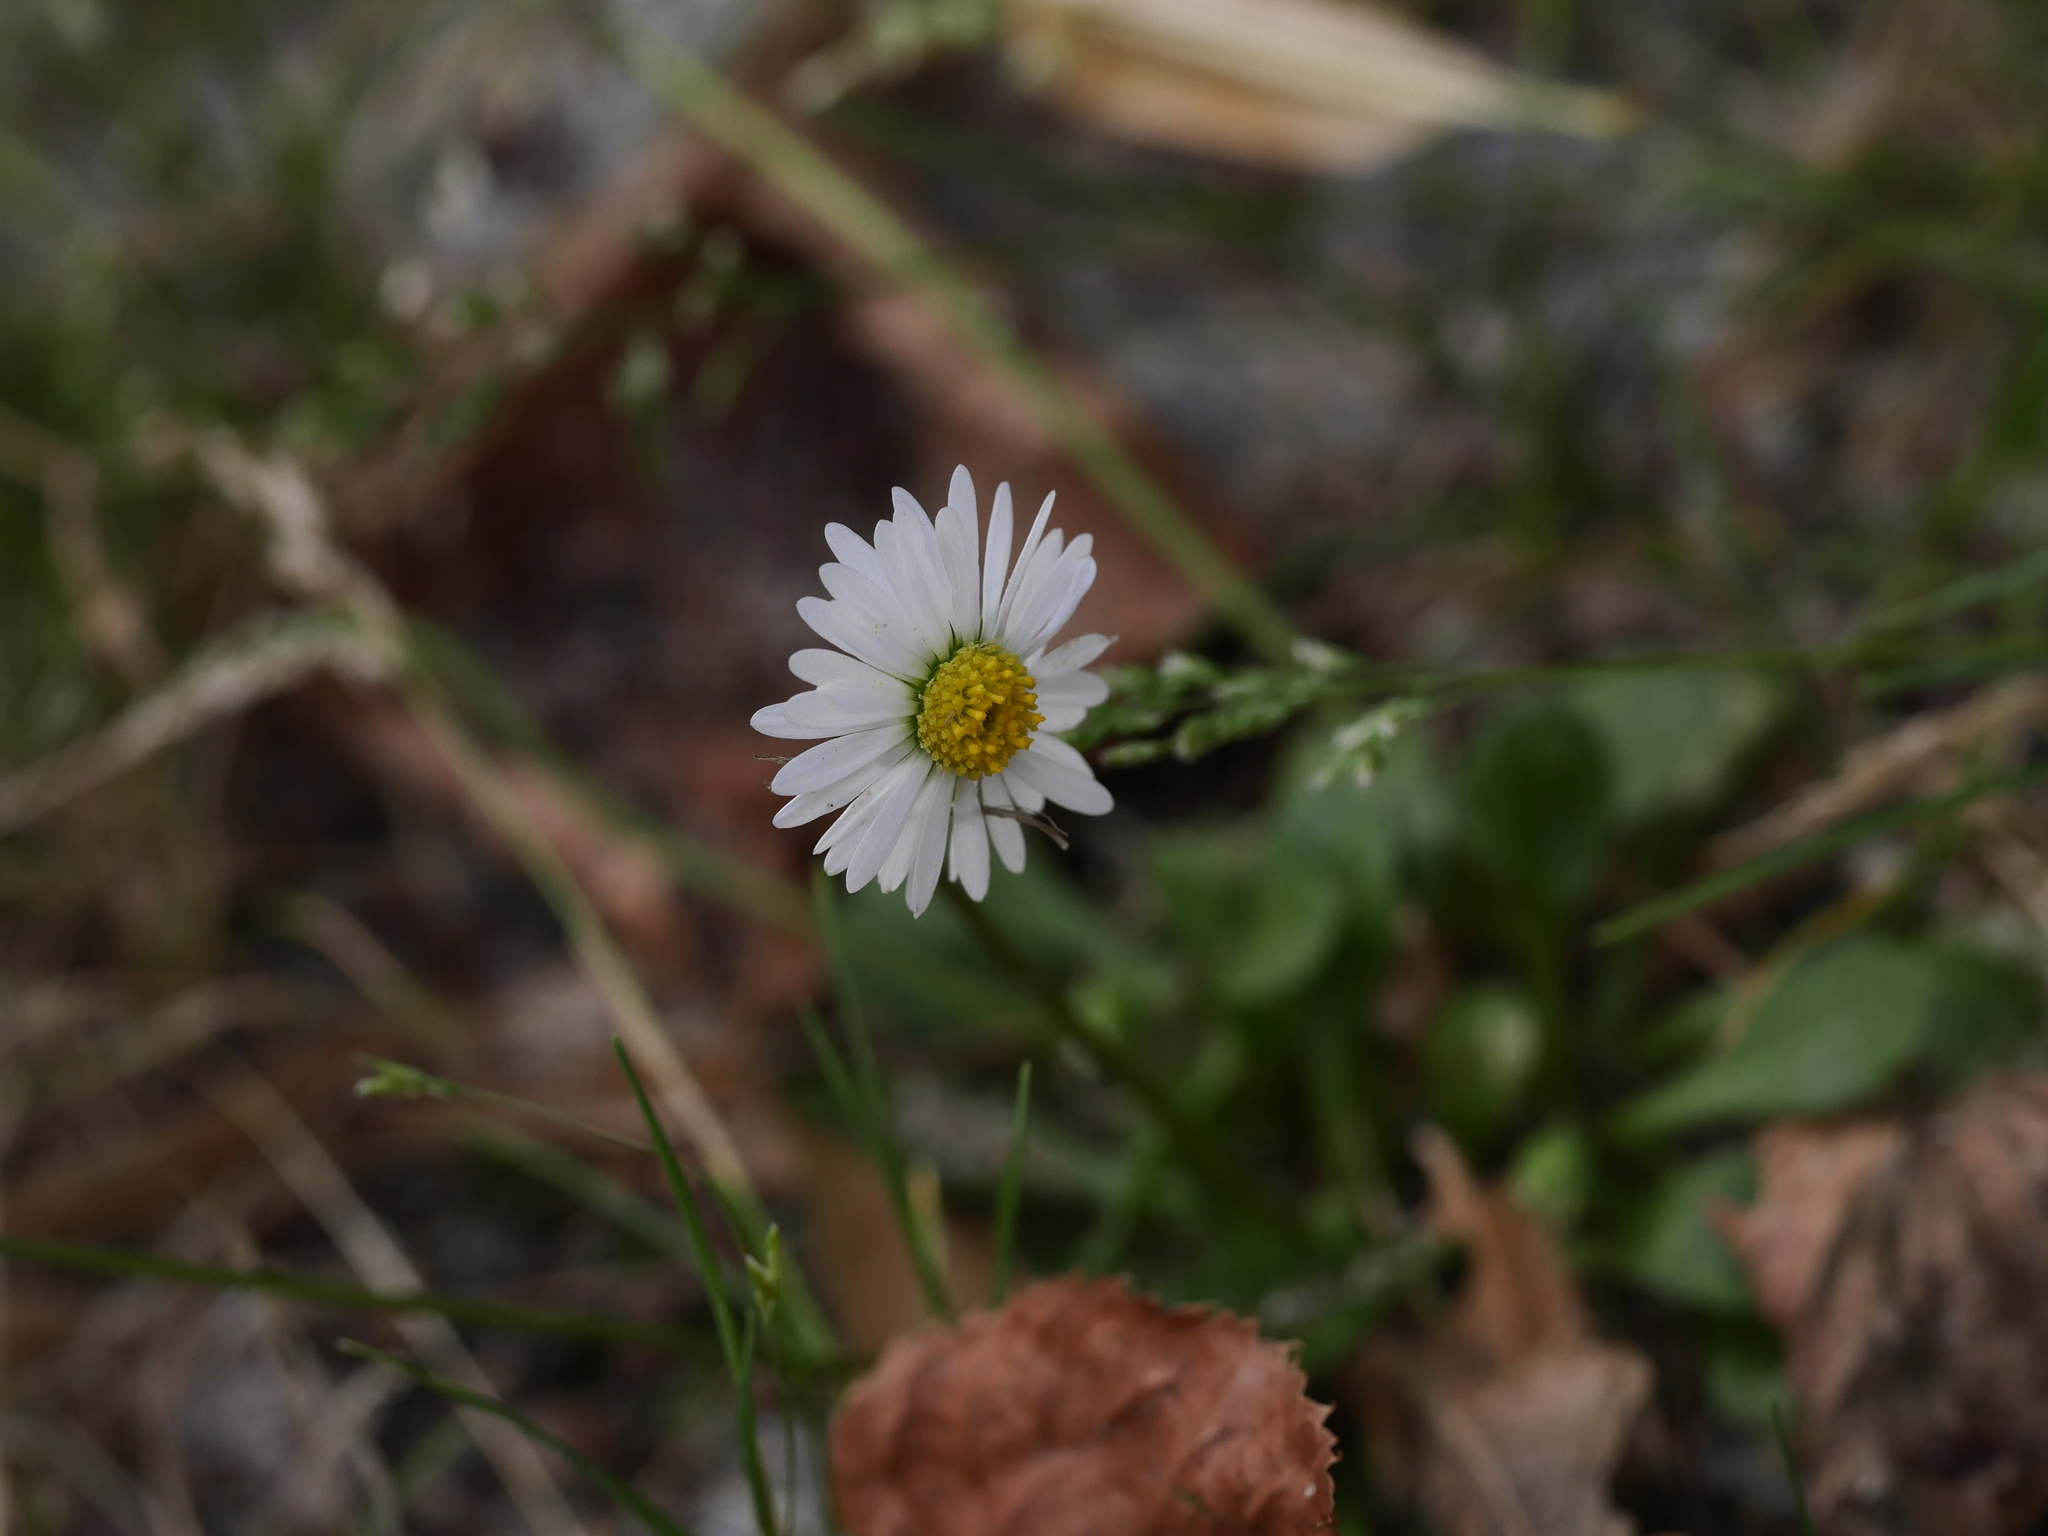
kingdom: Plantae
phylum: Tracheophyta
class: Magnoliopsida
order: Asterales
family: Asteraceae
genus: Bellis
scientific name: Bellis perennis
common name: Lawndaisy
